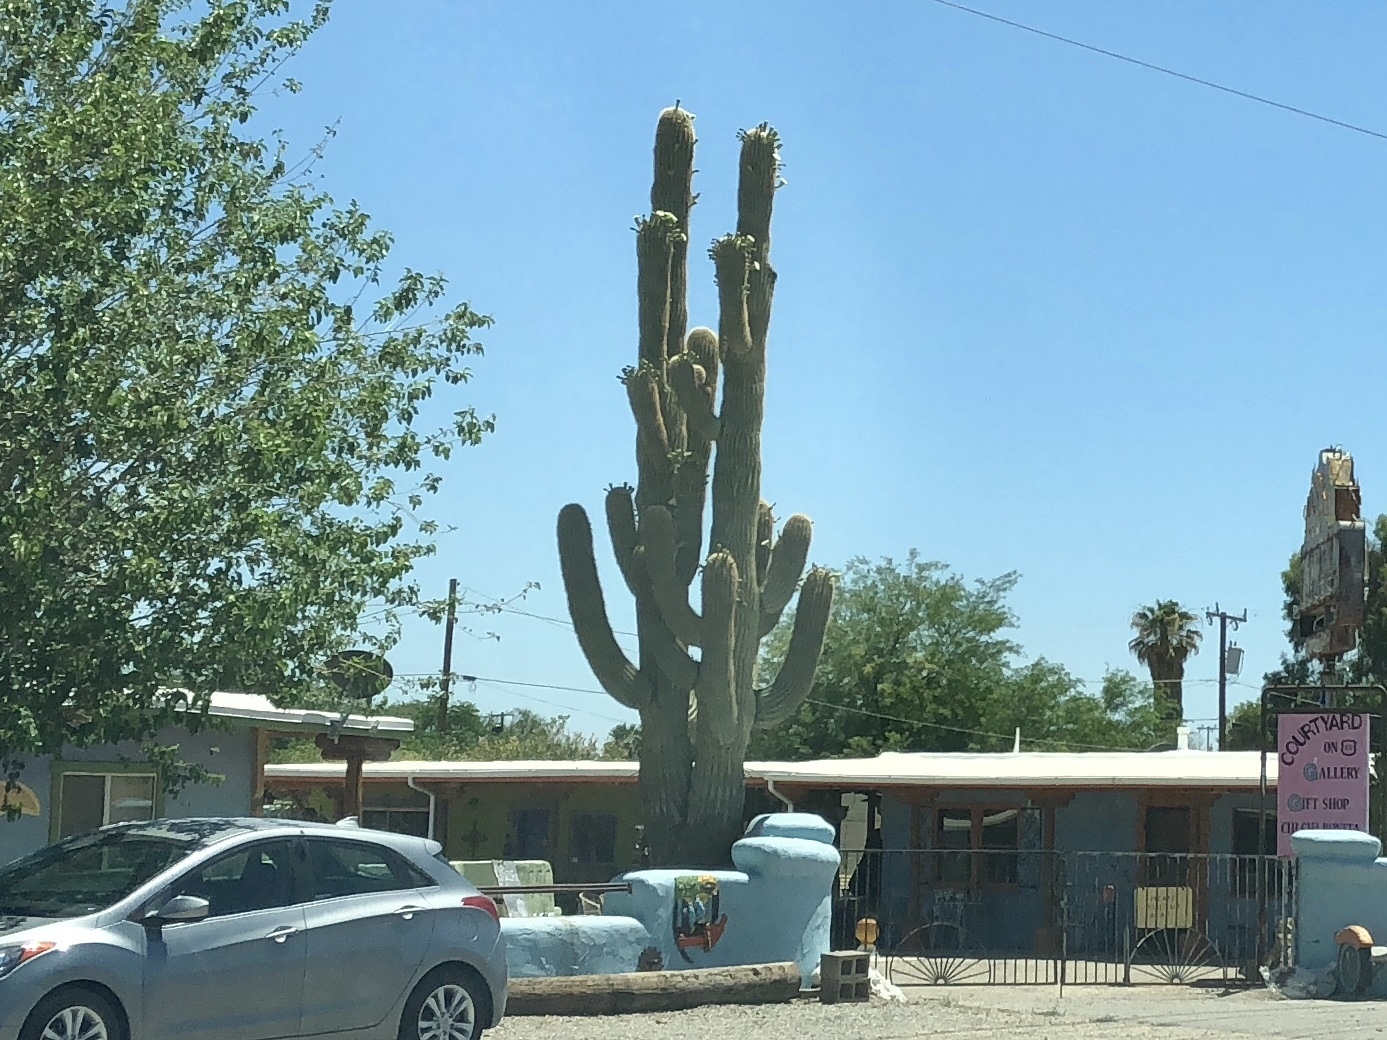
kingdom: Plantae
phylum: Tracheophyta
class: Magnoliopsida
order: Caryophyllales
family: Cactaceae
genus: Carnegiea
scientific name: Carnegiea gigantea
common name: Saguaro
